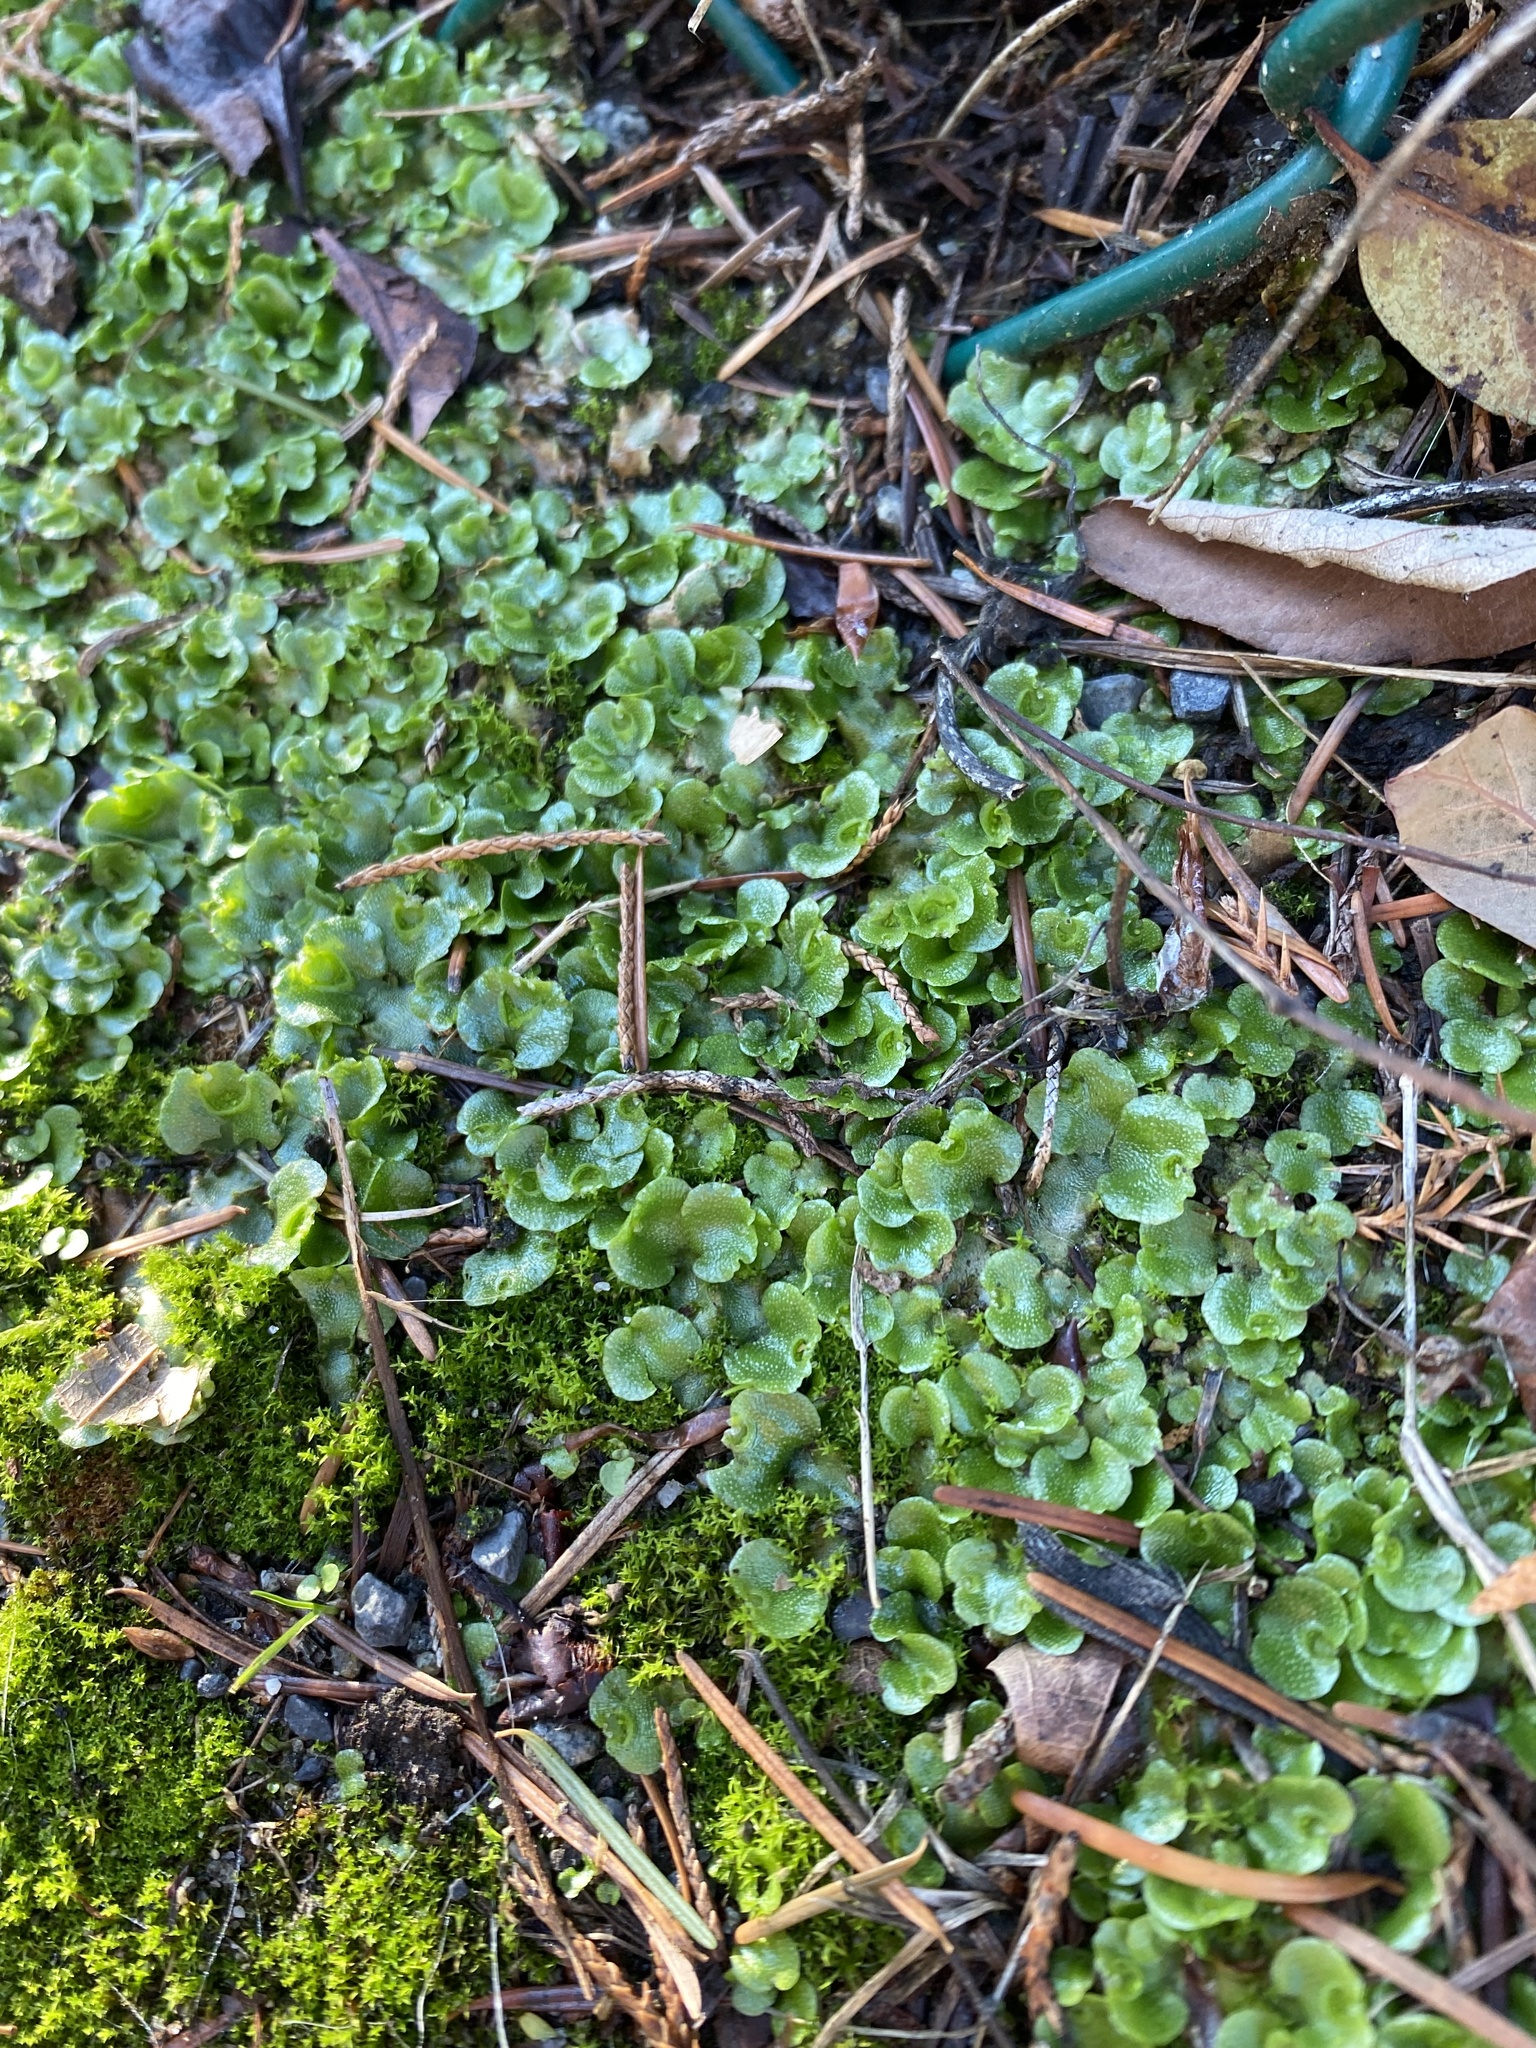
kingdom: Plantae
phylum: Marchantiophyta
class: Marchantiopsida
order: Lunulariales
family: Lunulariaceae
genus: Lunularia
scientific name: Lunularia cruciata
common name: Crescent-cup liverwort
